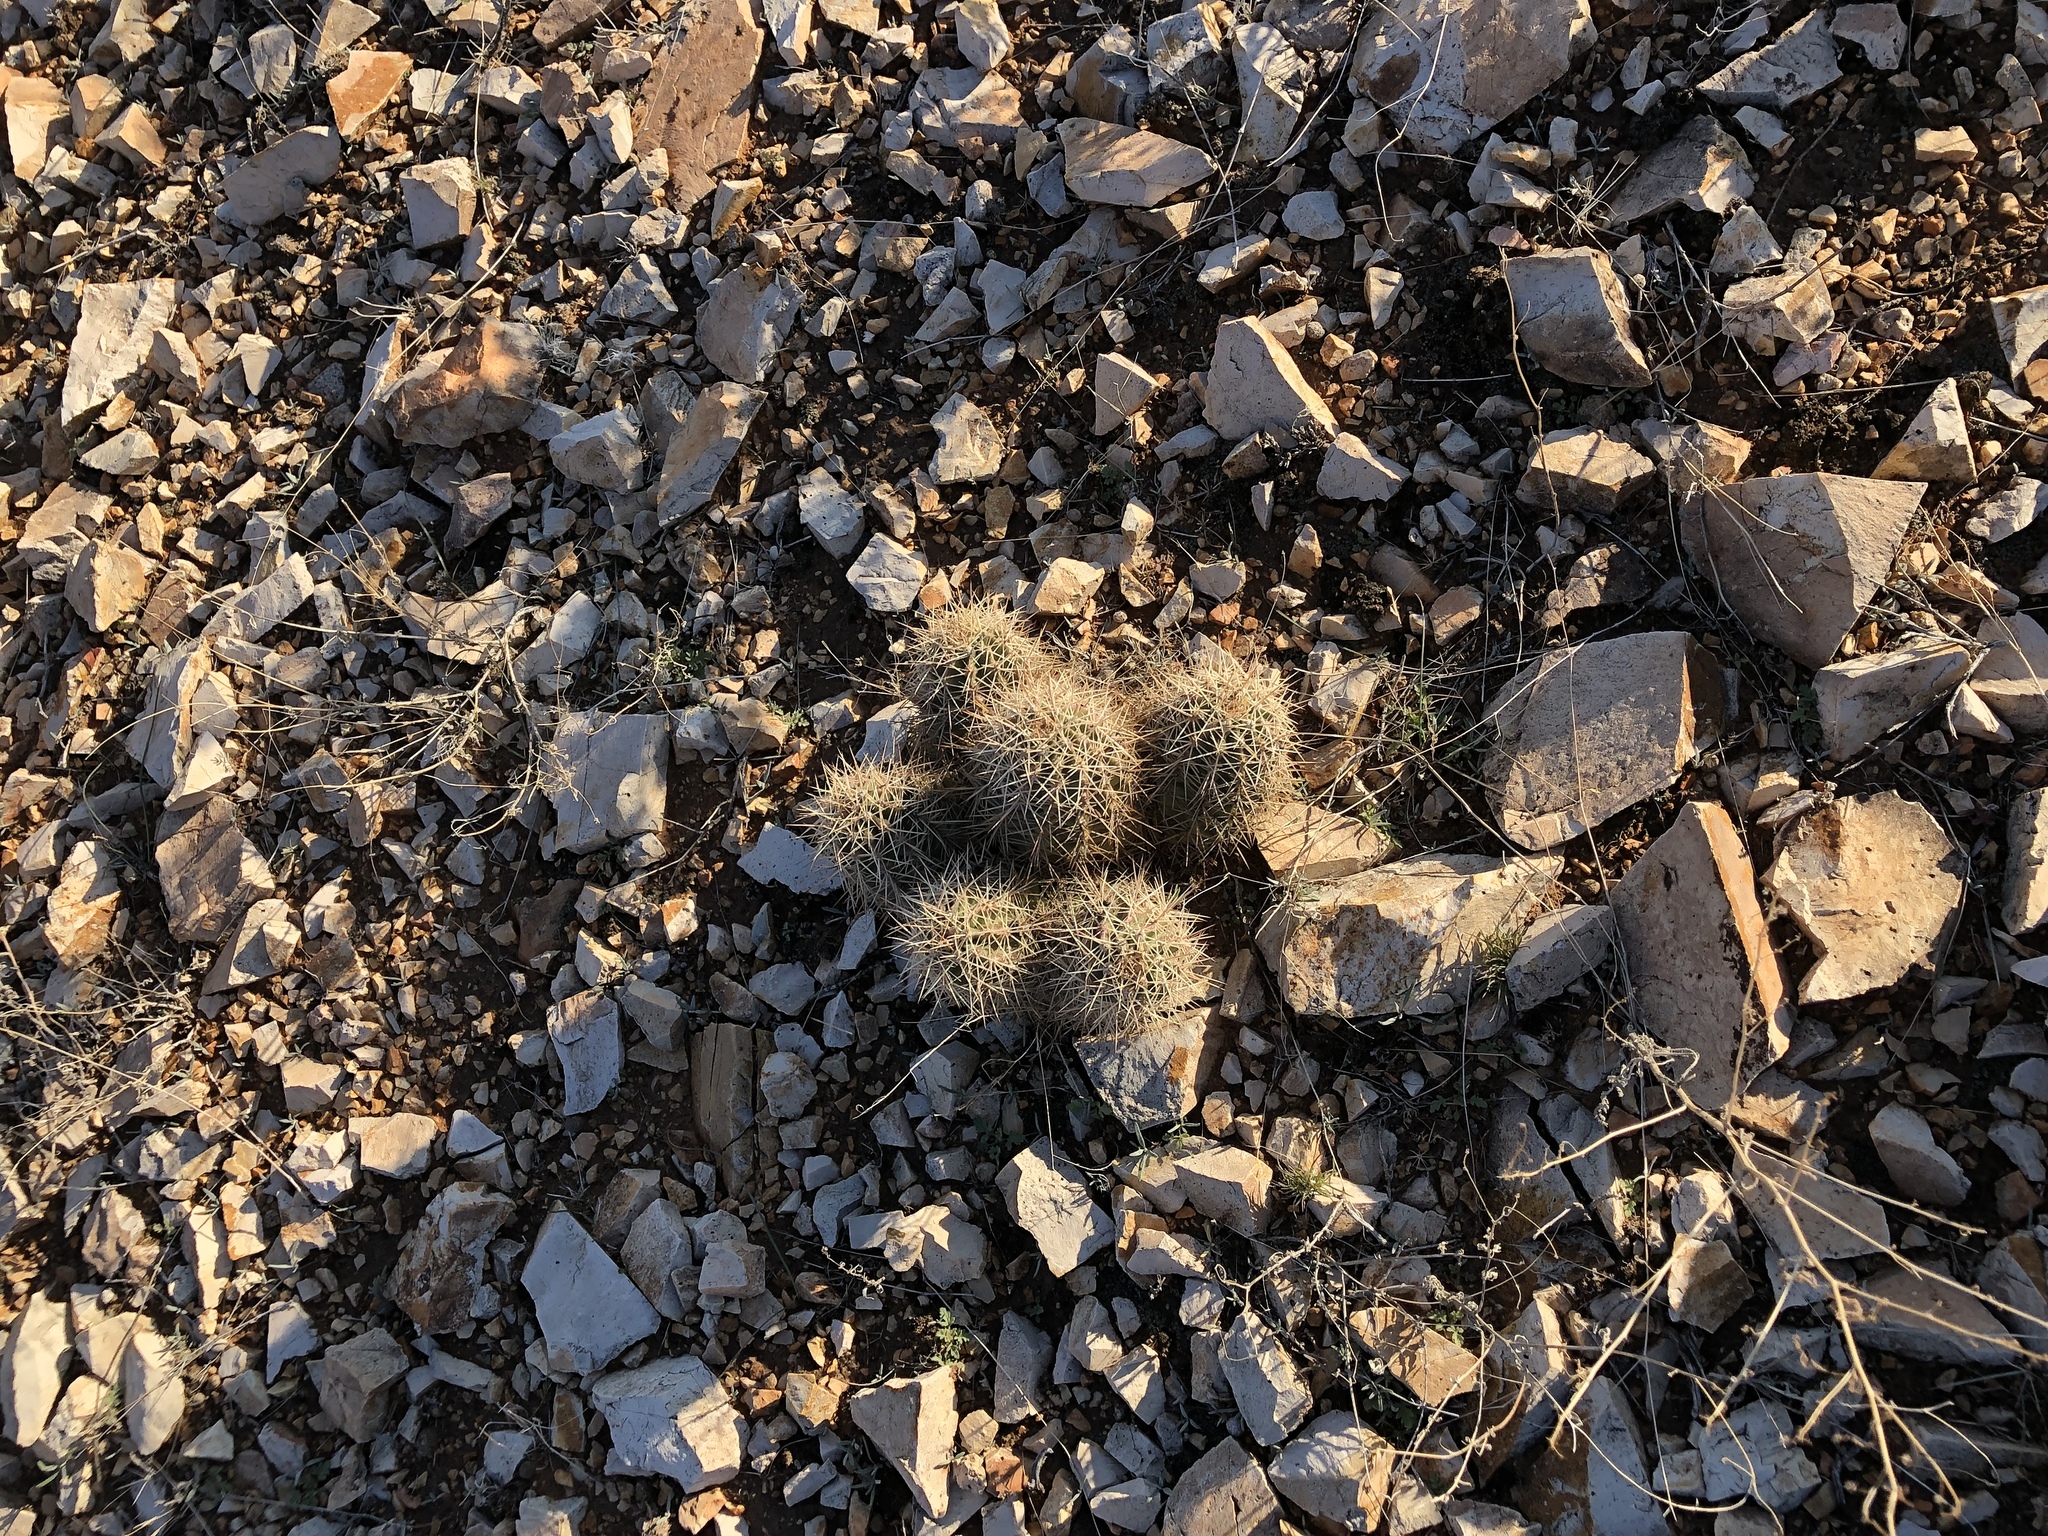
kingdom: Plantae
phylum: Tracheophyta
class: Magnoliopsida
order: Caryophyllales
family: Cactaceae
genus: Echinocereus
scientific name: Echinocereus coccineus
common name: Scarlet hedgehog cactus
